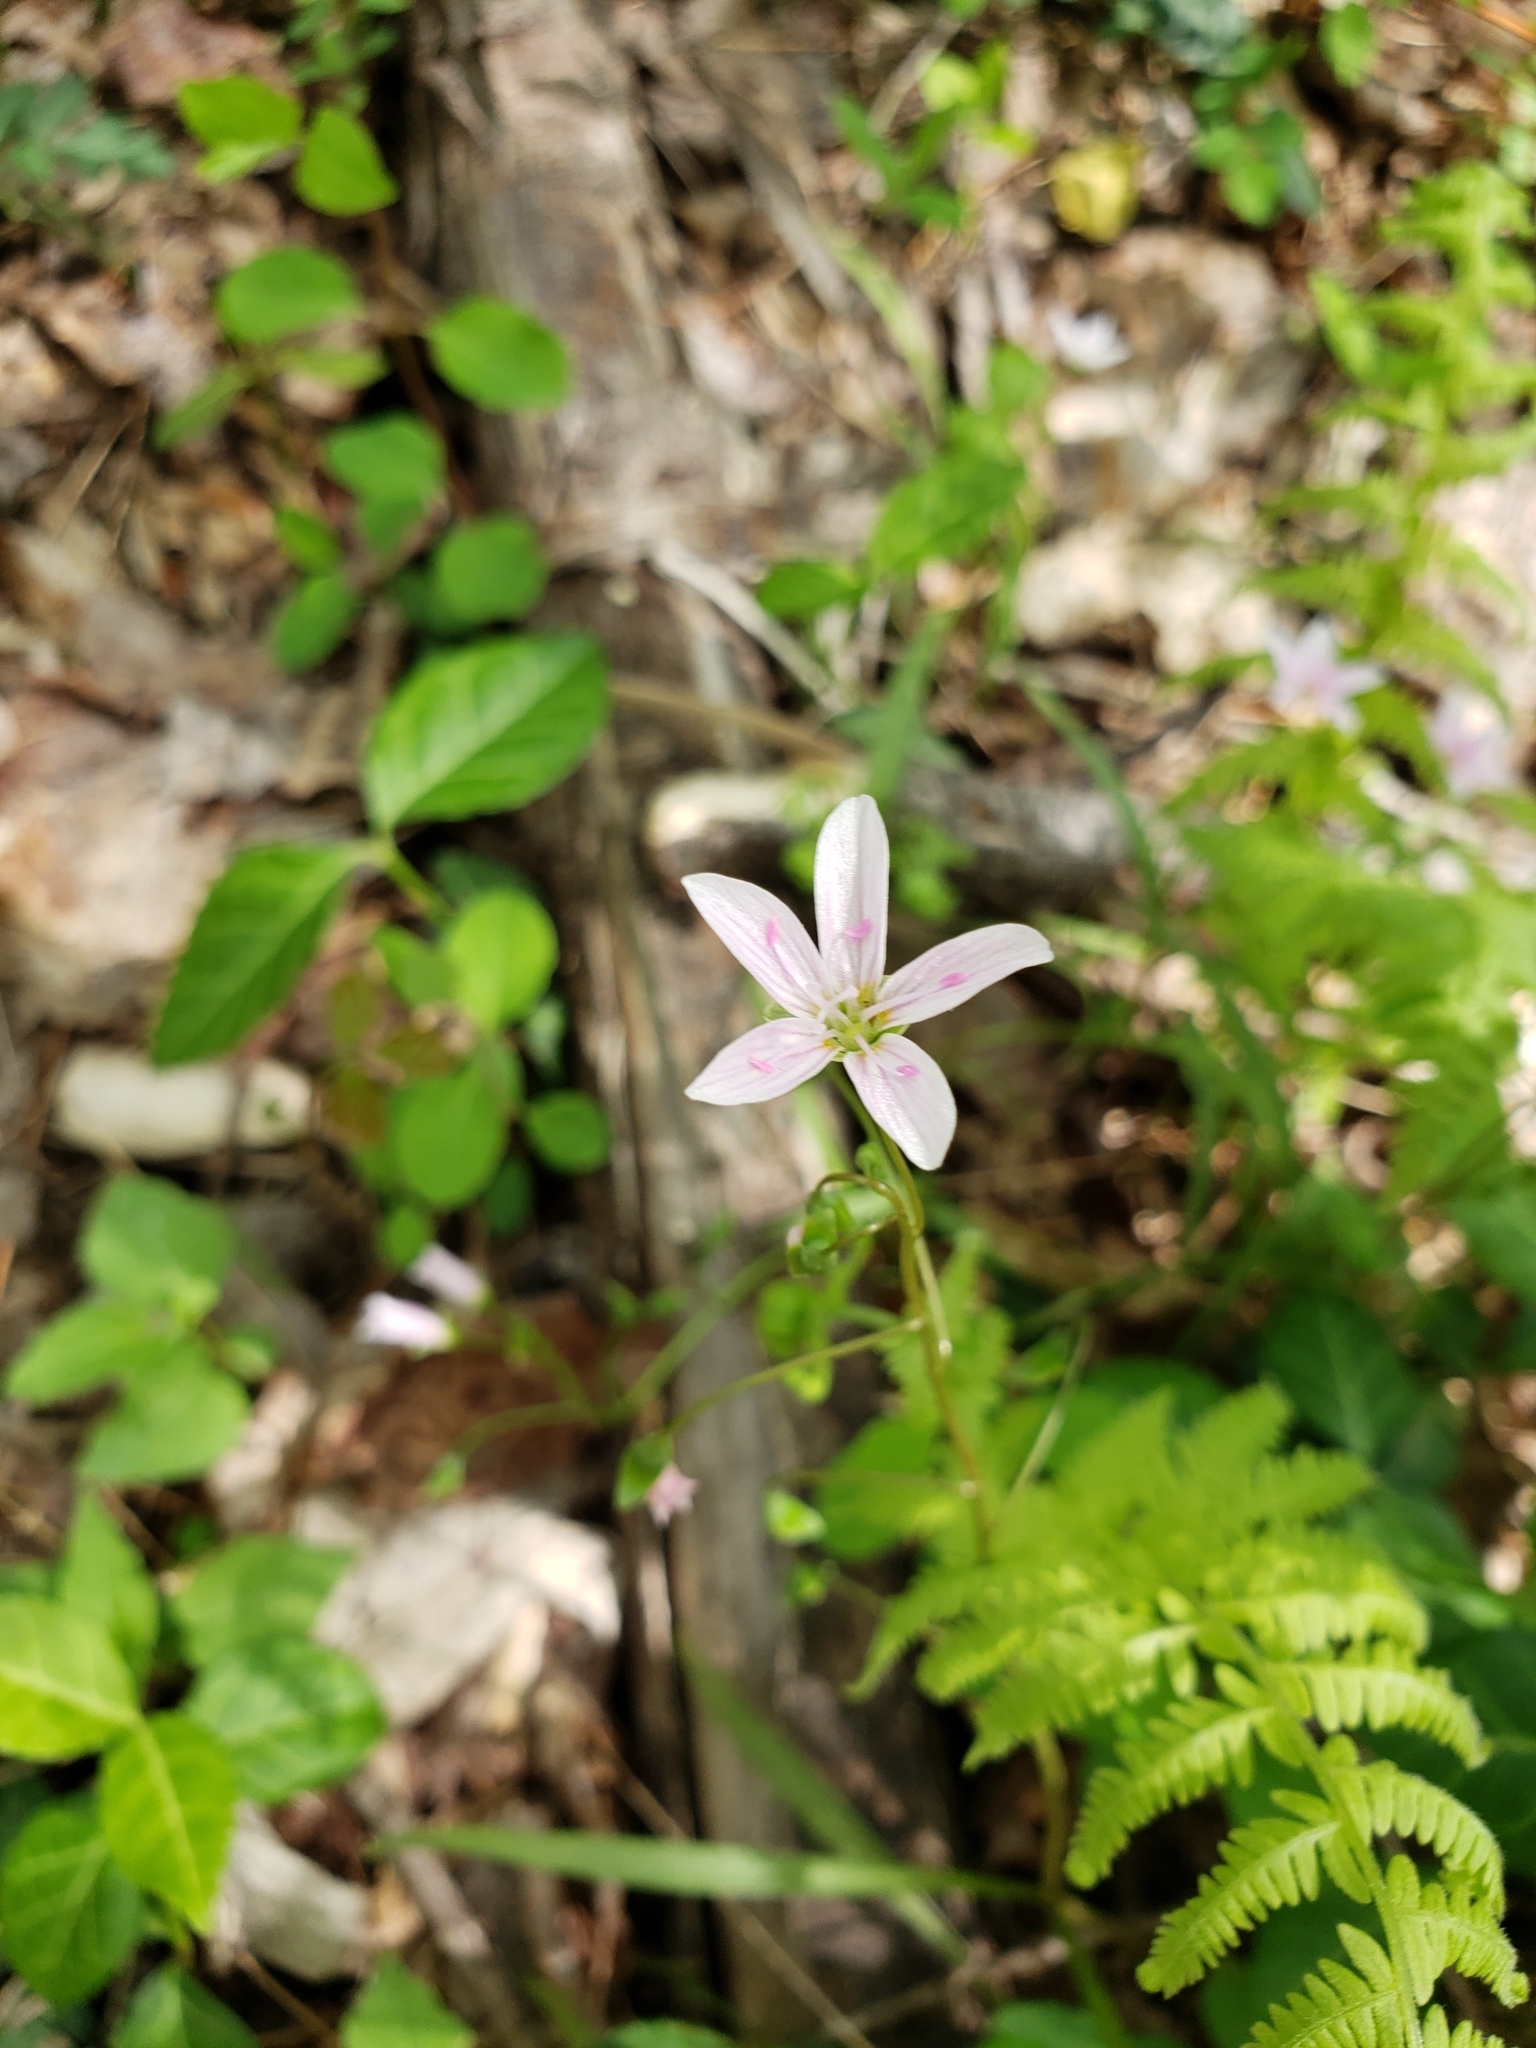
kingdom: Plantae
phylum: Tracheophyta
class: Magnoliopsida
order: Caryophyllales
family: Montiaceae
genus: Claytonia
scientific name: Claytonia virginica
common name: Virginia springbeauty
